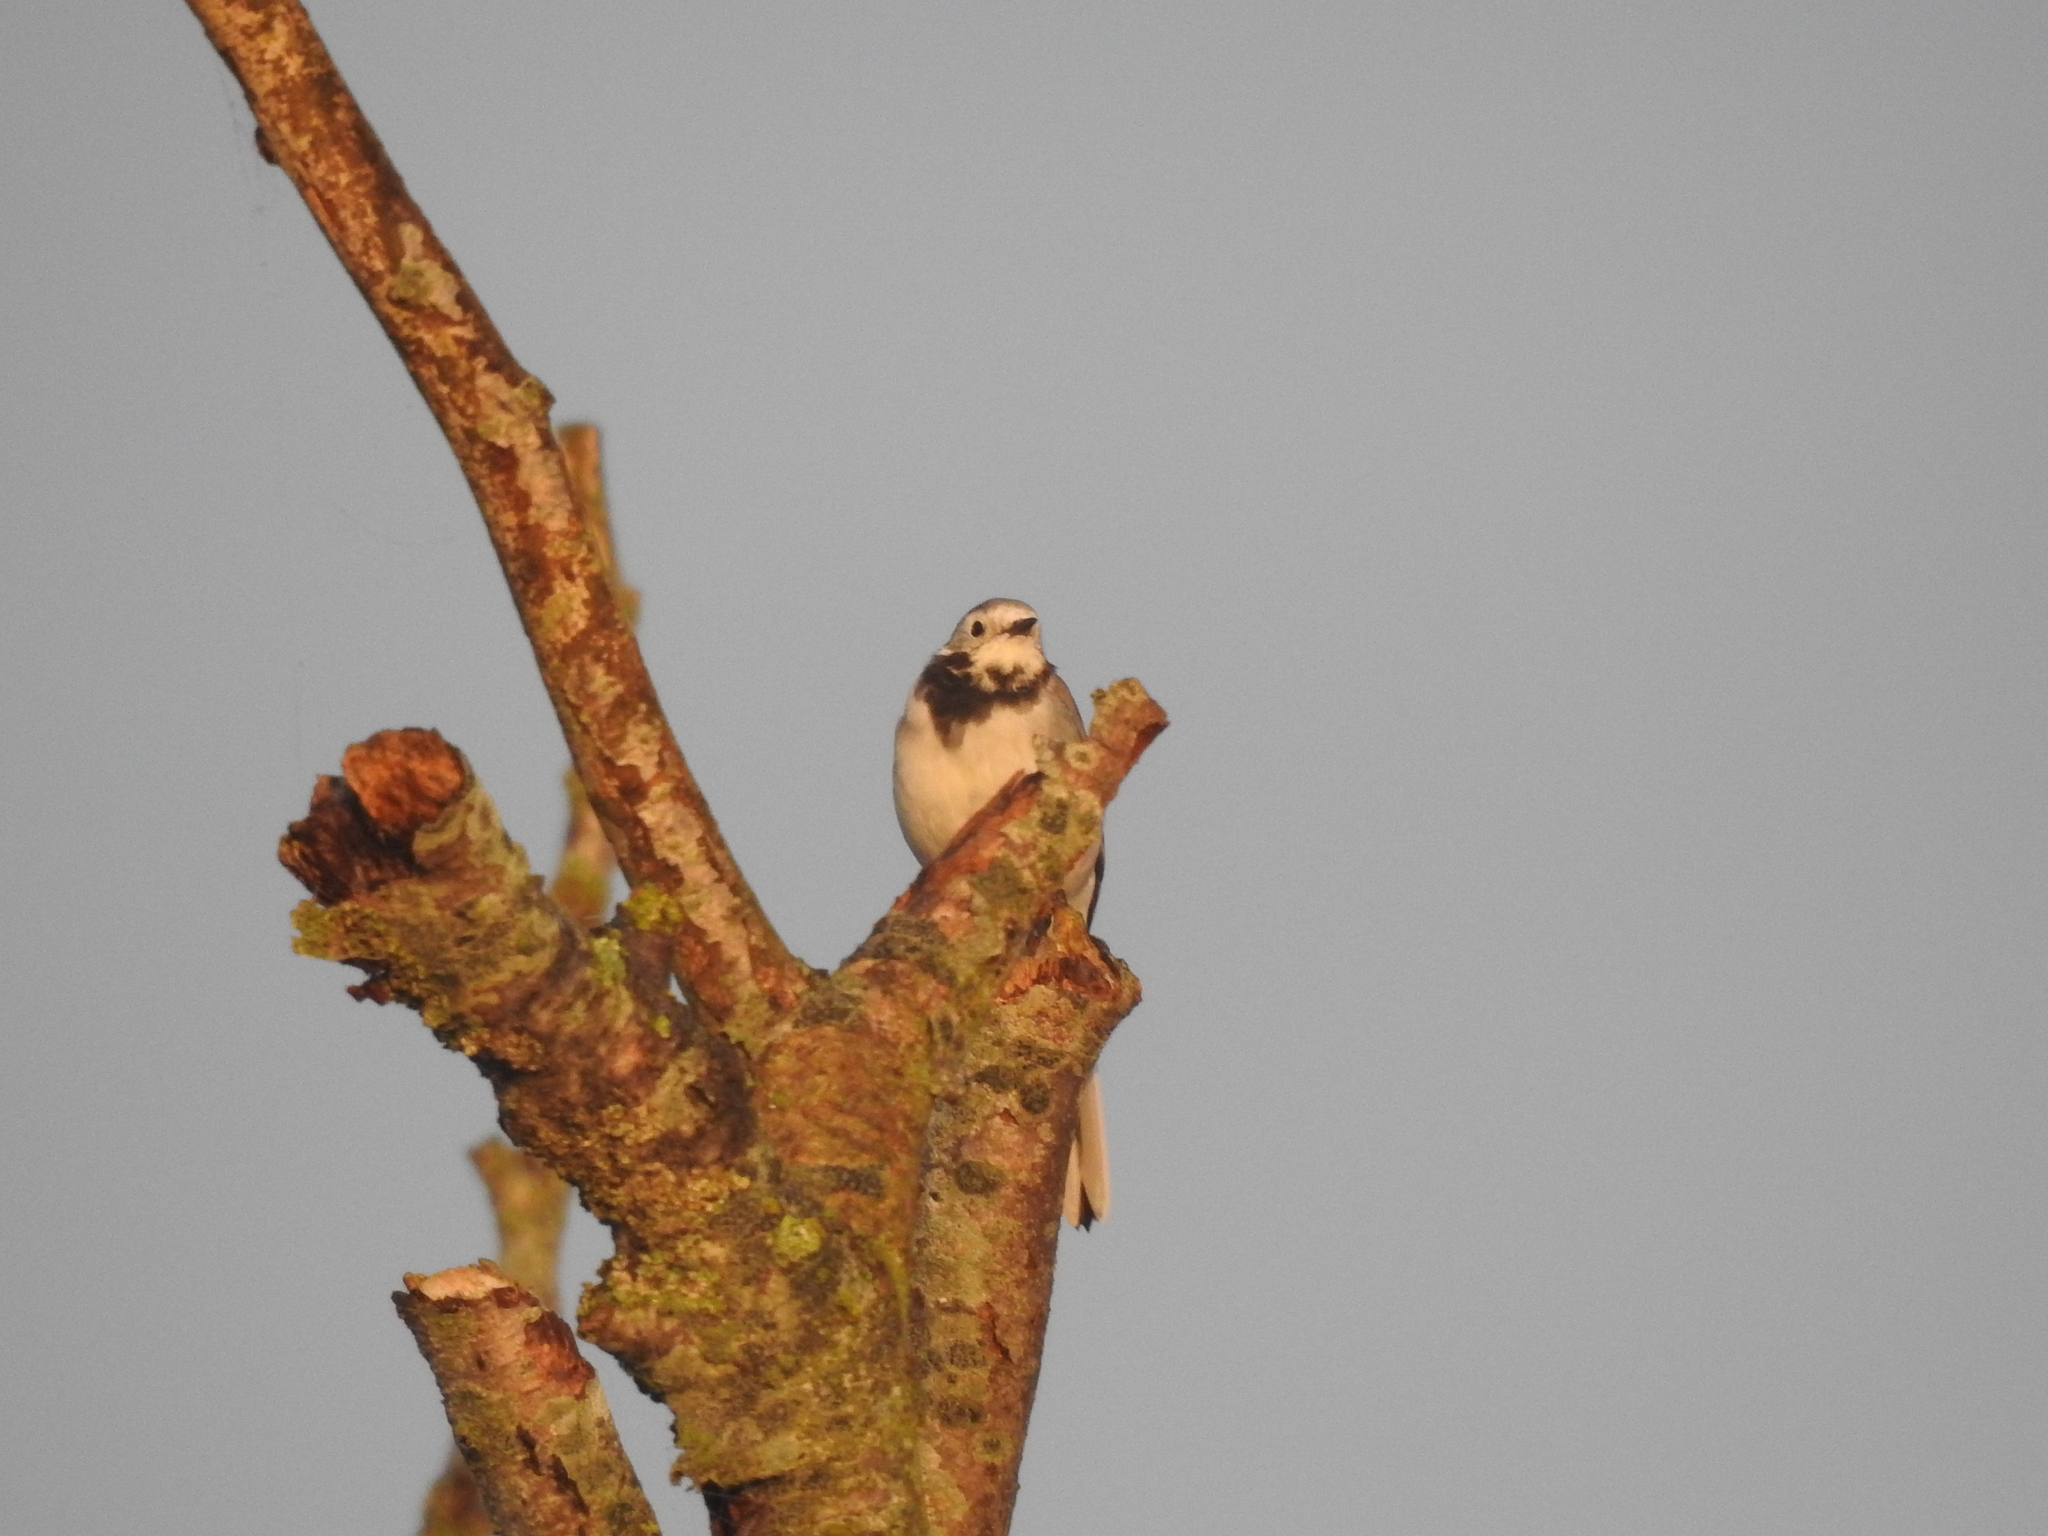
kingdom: Animalia
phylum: Chordata
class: Aves
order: Passeriformes
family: Motacillidae
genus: Motacilla
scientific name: Motacilla alba
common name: White wagtail
